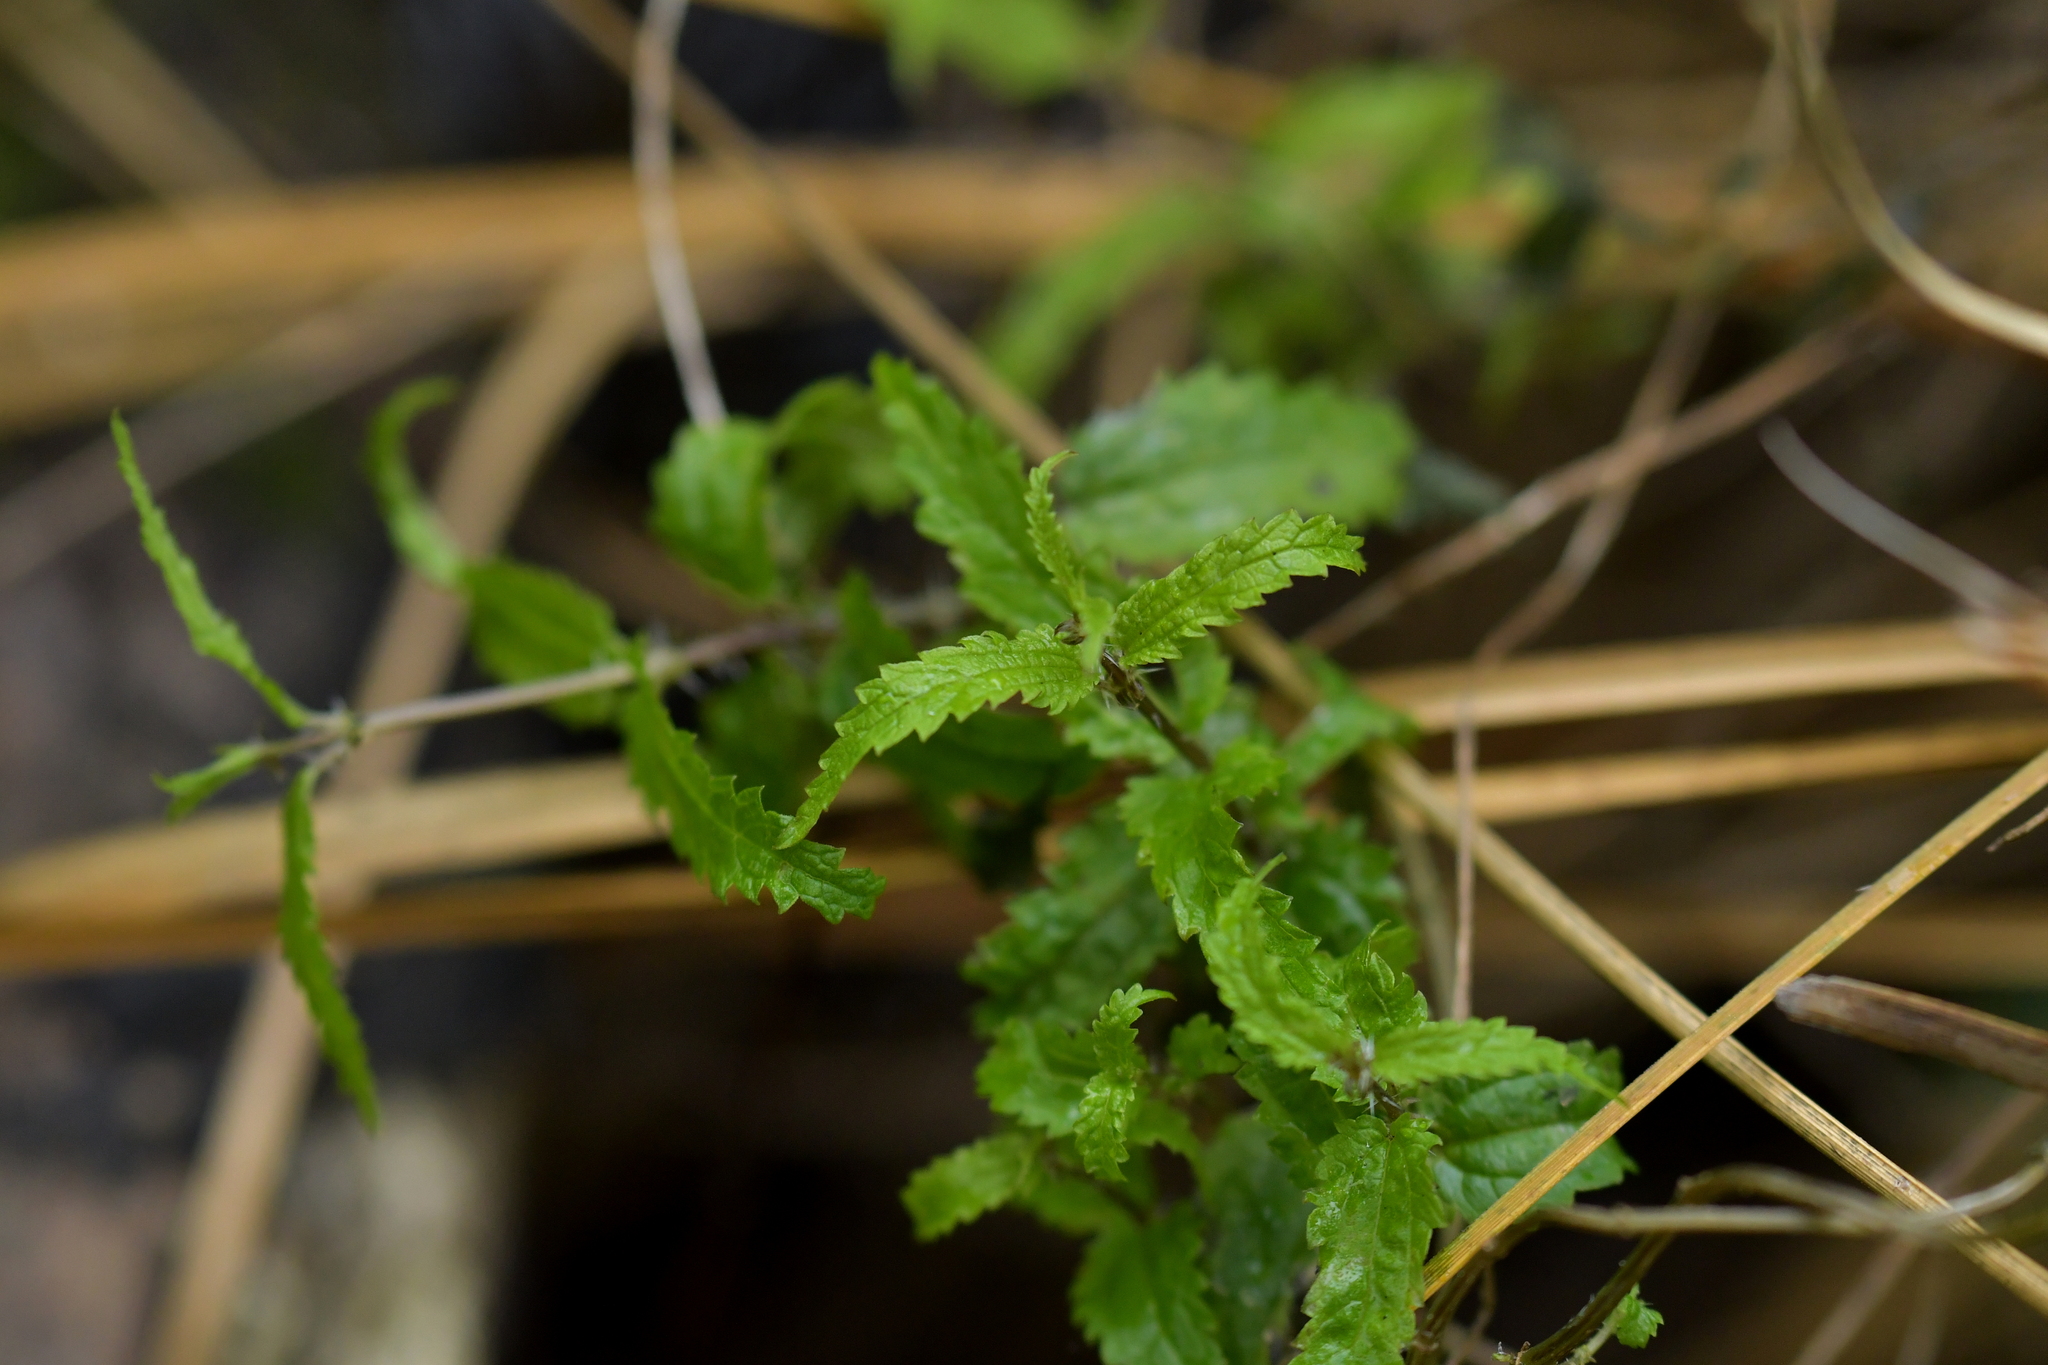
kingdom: Plantae
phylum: Tracheophyta
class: Magnoliopsida
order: Rosales
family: Urticaceae
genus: Urtica
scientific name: Urtica perconfusa
